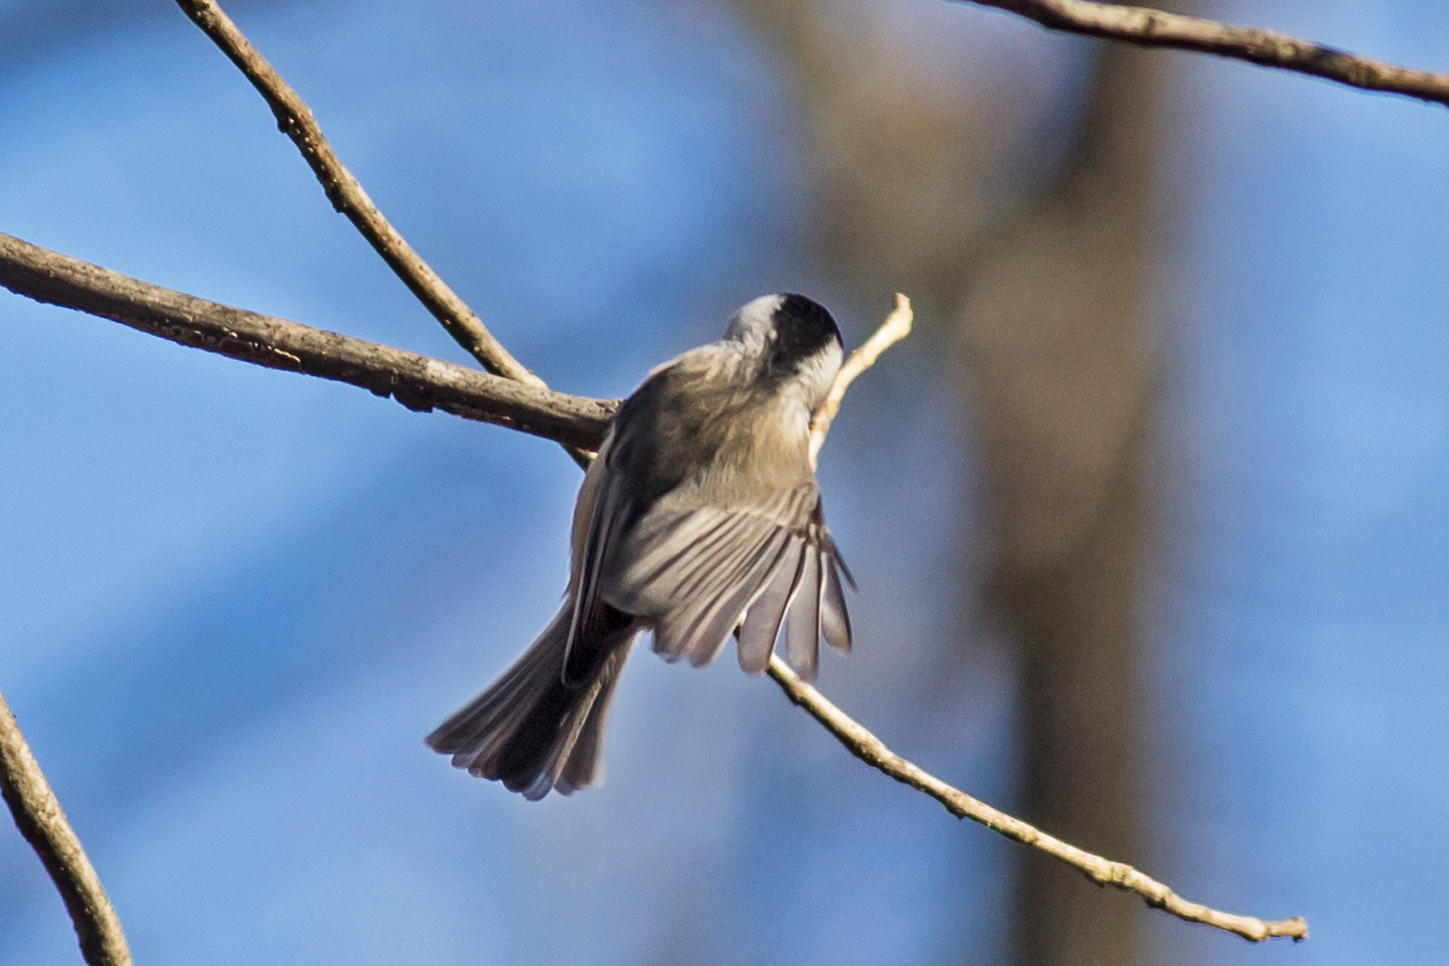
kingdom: Animalia
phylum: Chordata
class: Aves
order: Passeriformes
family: Paridae
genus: Poecile
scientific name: Poecile carolinensis
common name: Carolina chickadee
